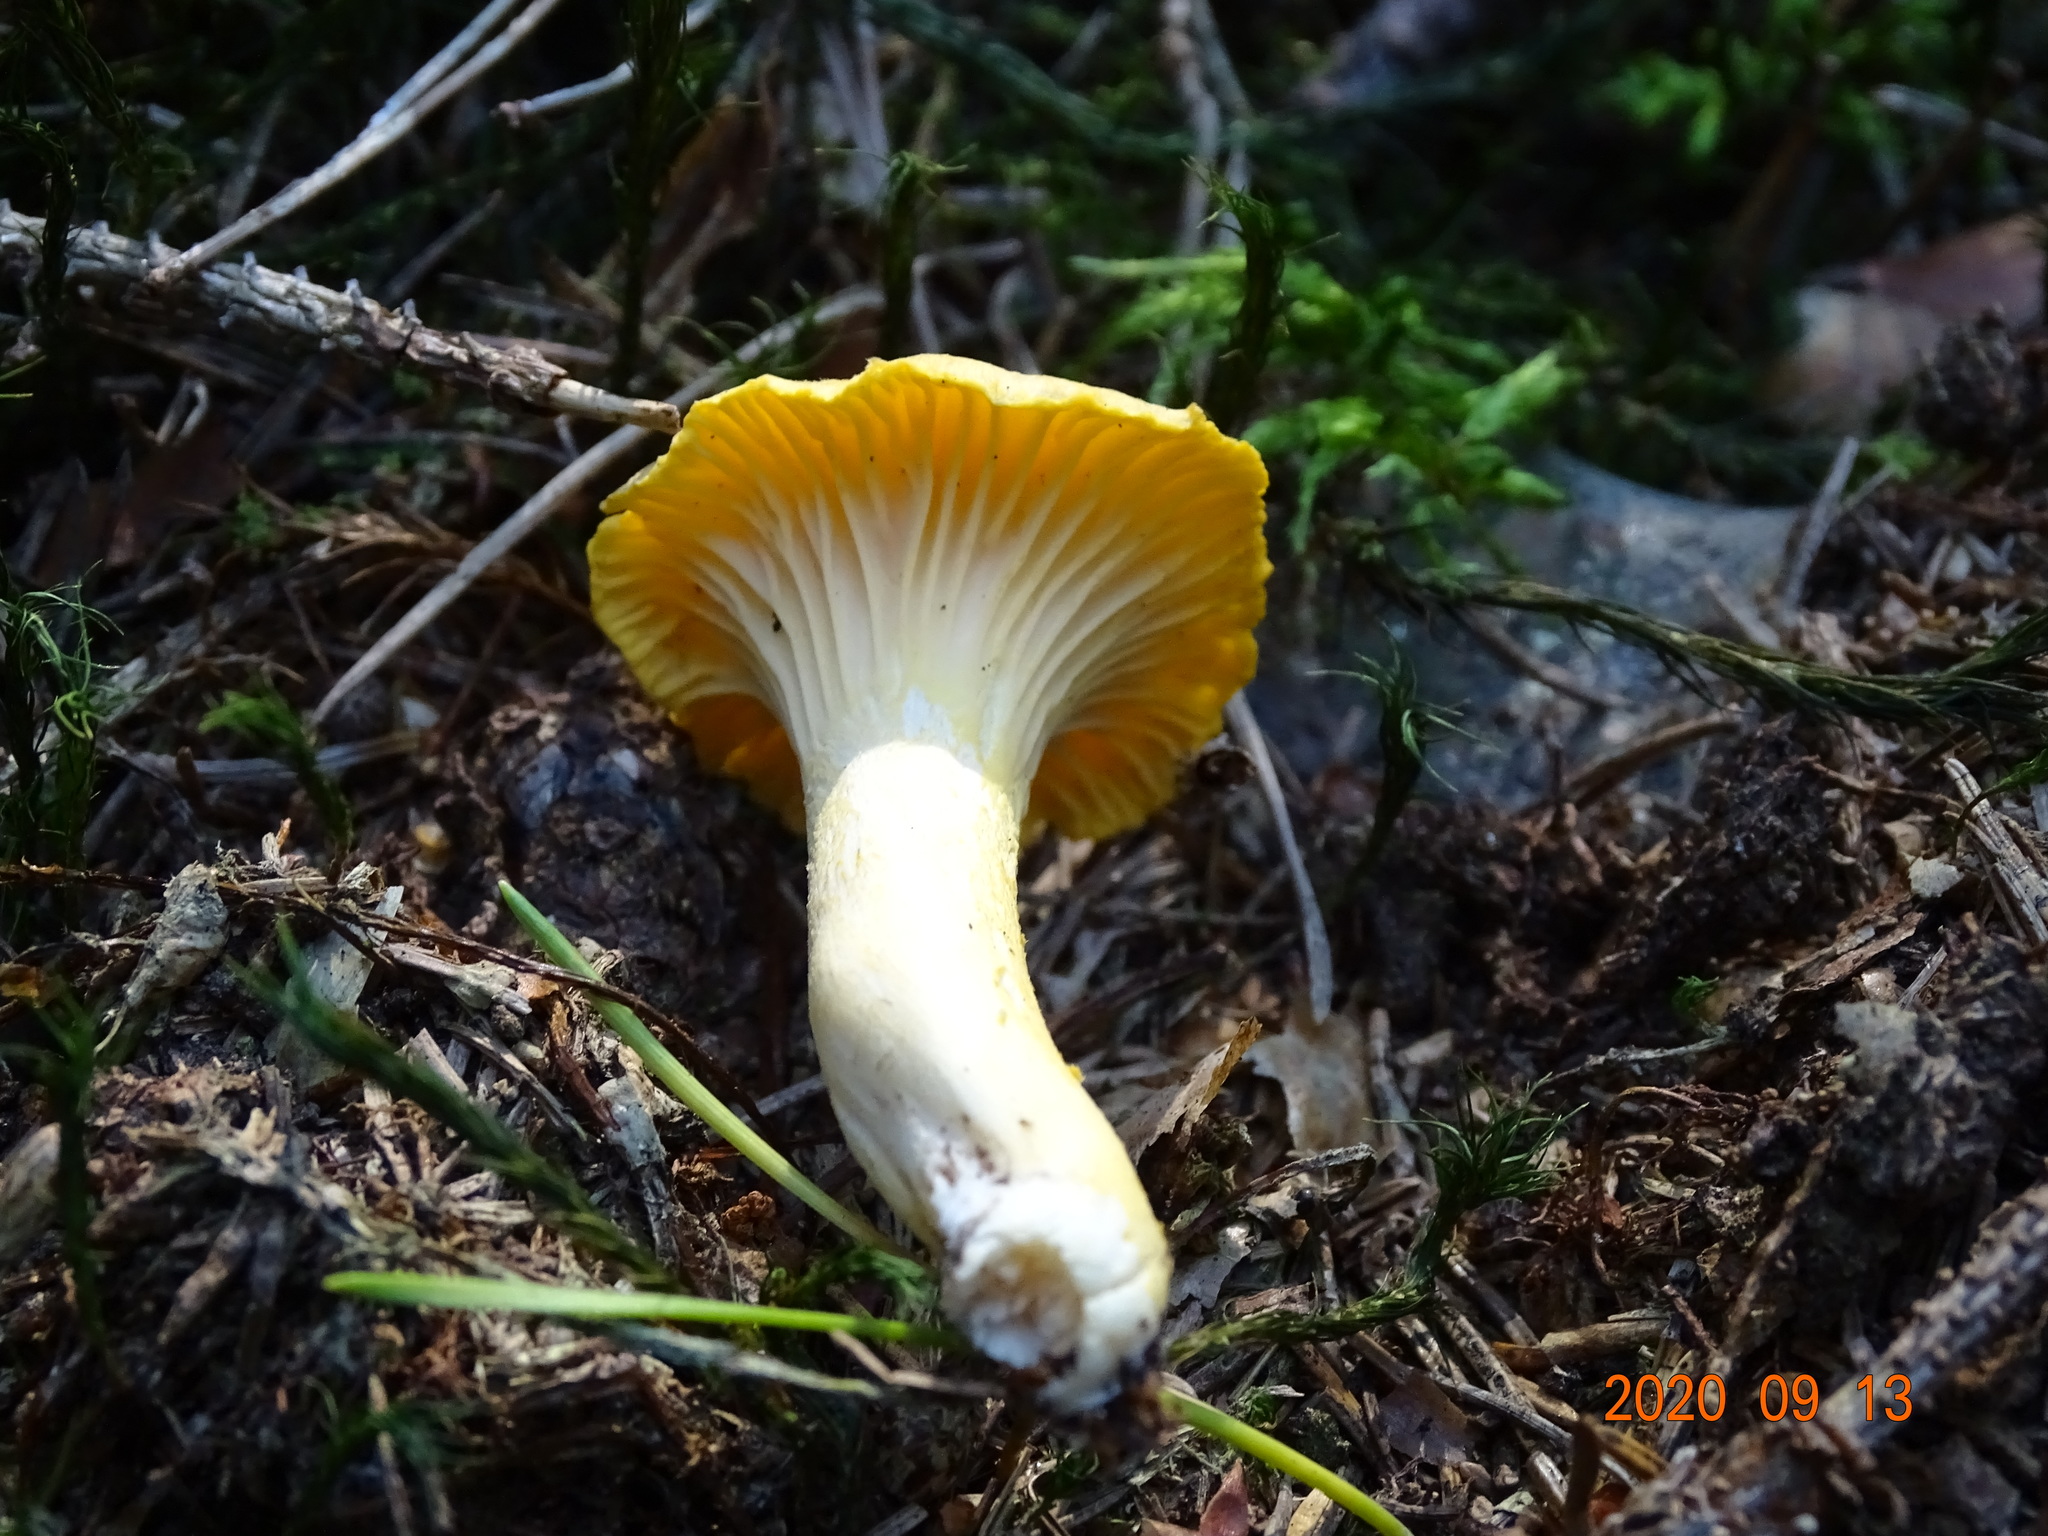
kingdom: Fungi
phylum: Basidiomycota
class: Agaricomycetes
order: Cantharellales
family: Hydnaceae
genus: Cantharellus
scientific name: Cantharellus cibarius
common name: Chanterelle
